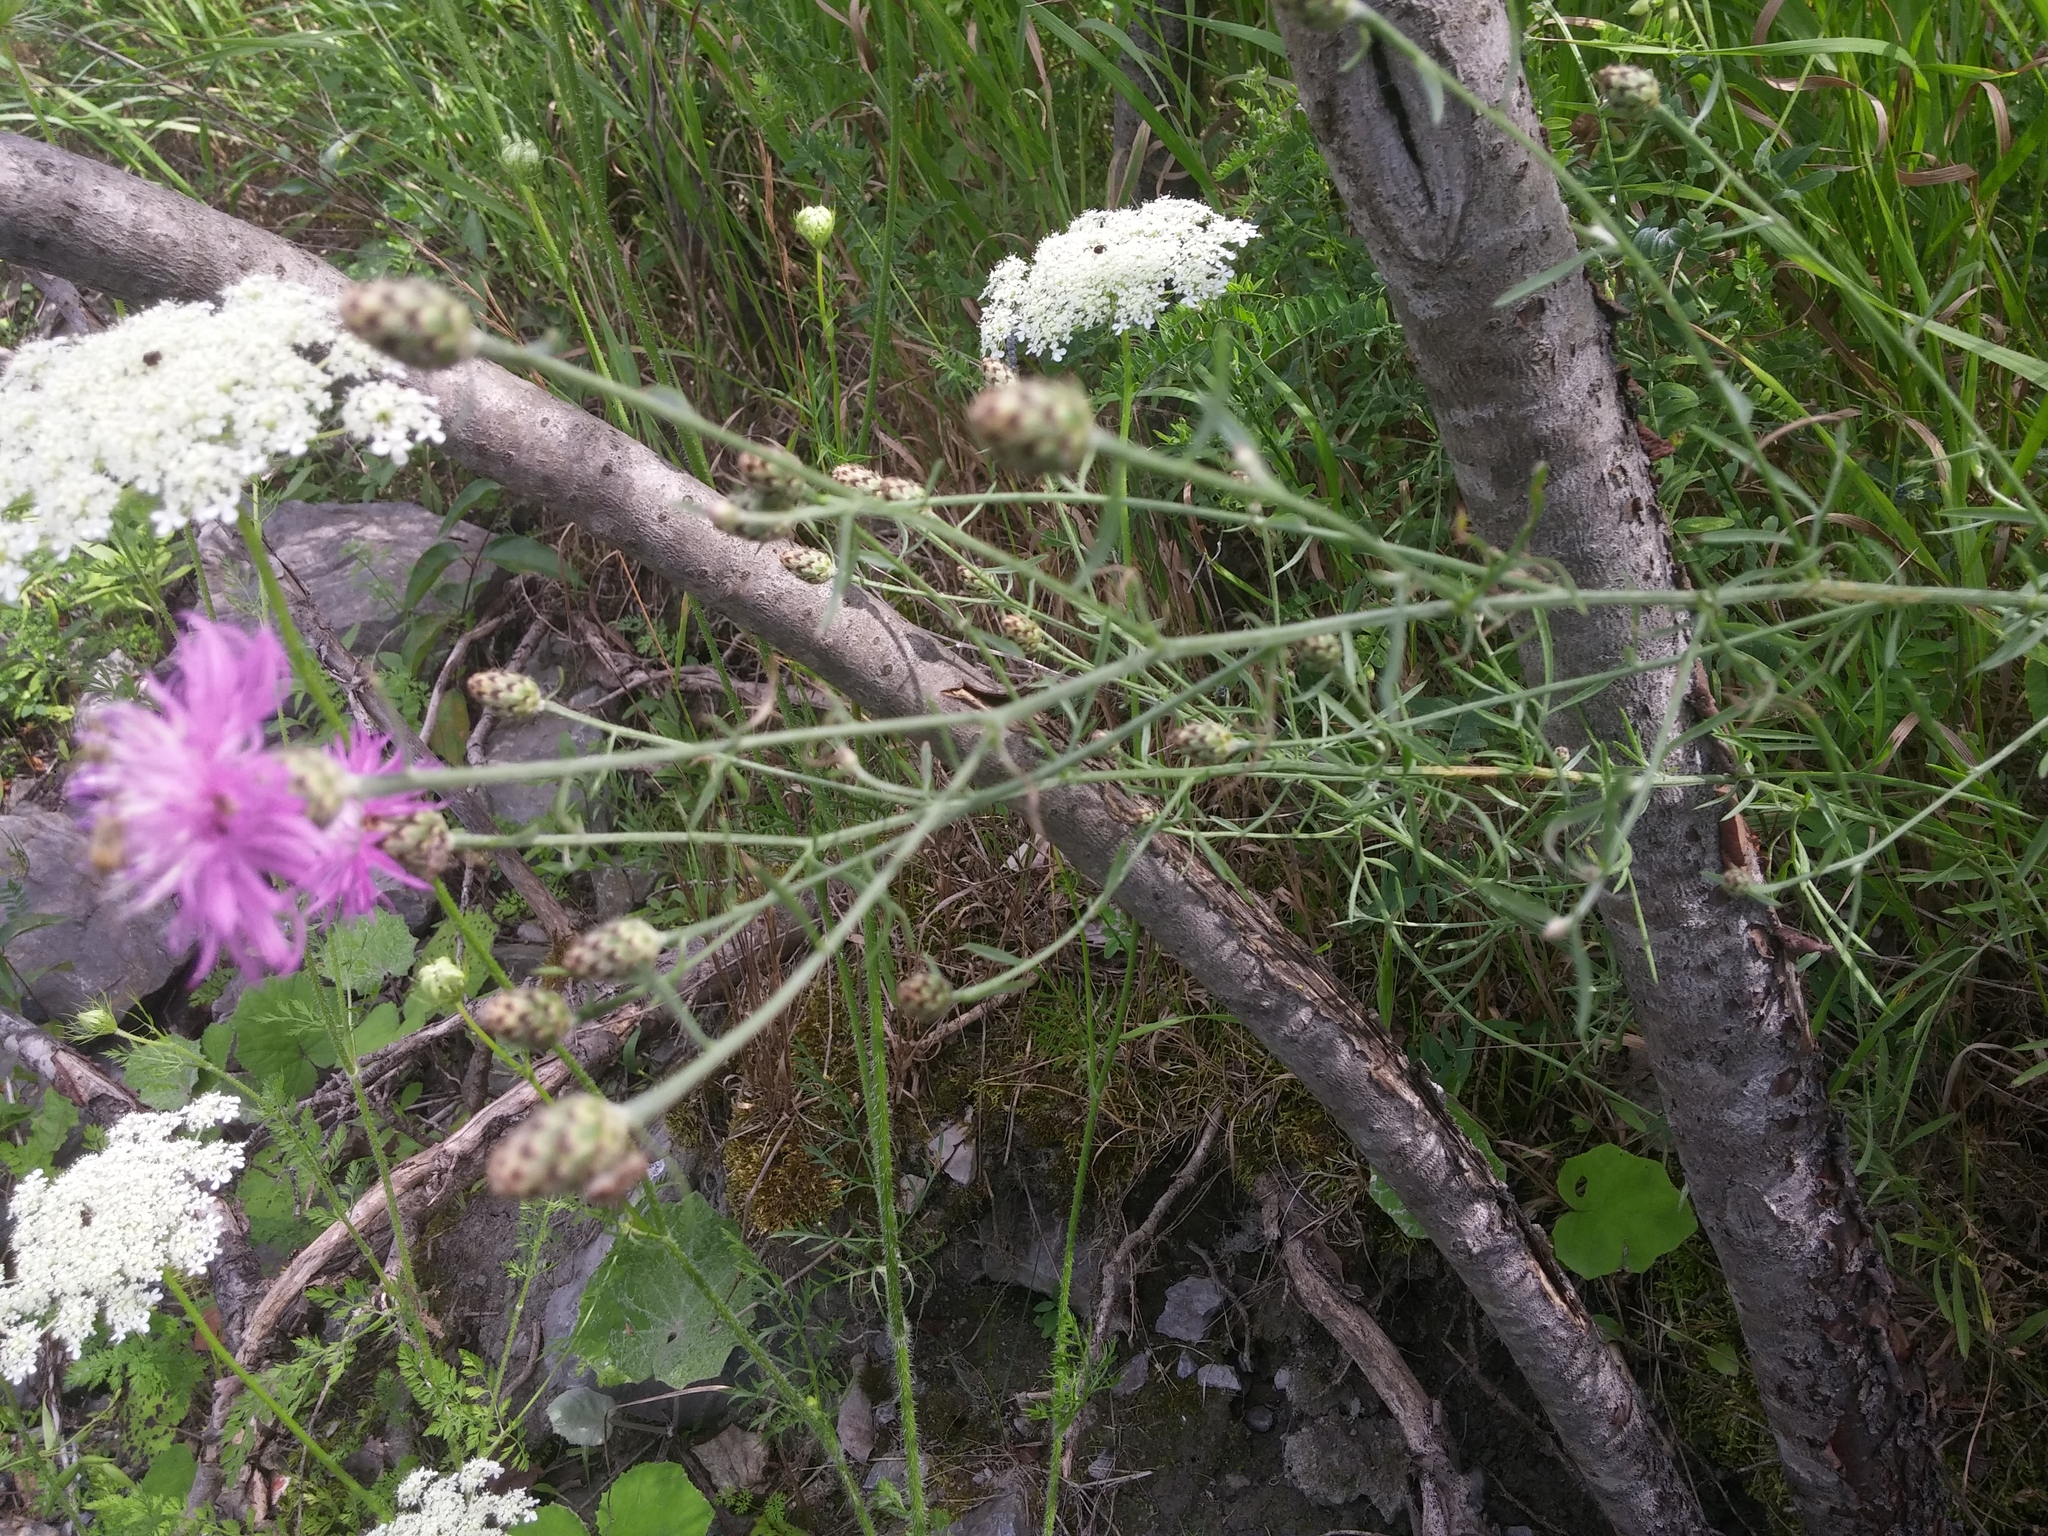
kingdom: Plantae
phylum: Tracheophyta
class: Magnoliopsida
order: Asterales
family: Asteraceae
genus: Centaurea
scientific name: Centaurea stoebe
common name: Spotted knapweed
